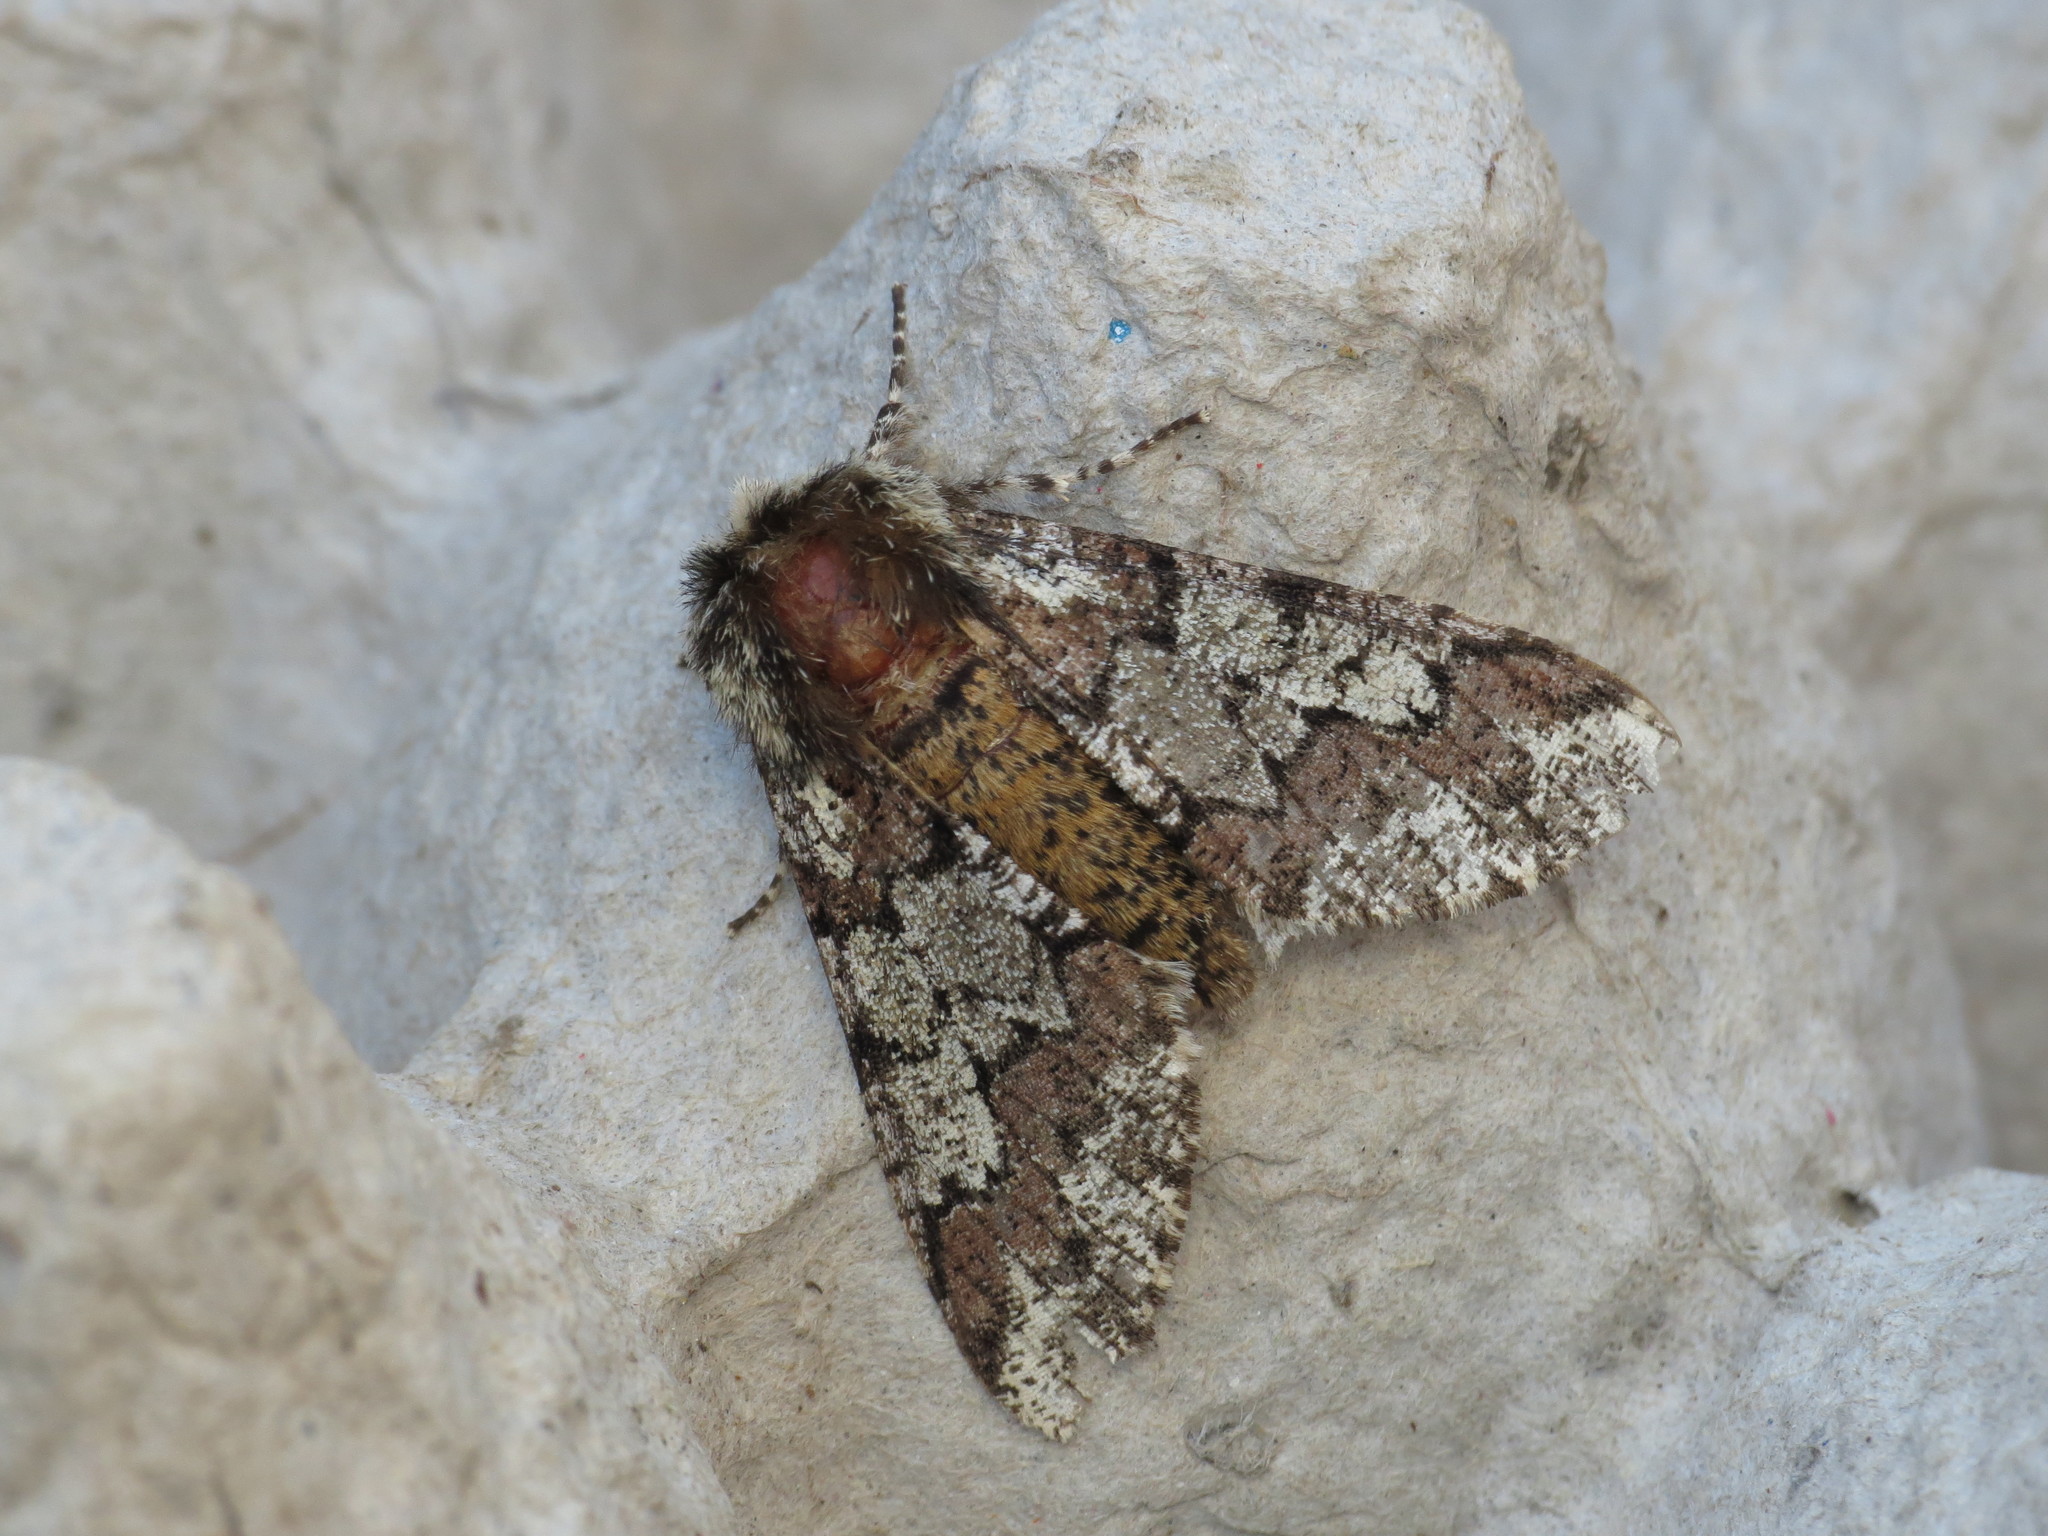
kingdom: Animalia
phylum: Arthropoda
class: Insecta
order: Lepidoptera
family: Geometridae
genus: Biston
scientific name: Biston strataria
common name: Oak beauty
